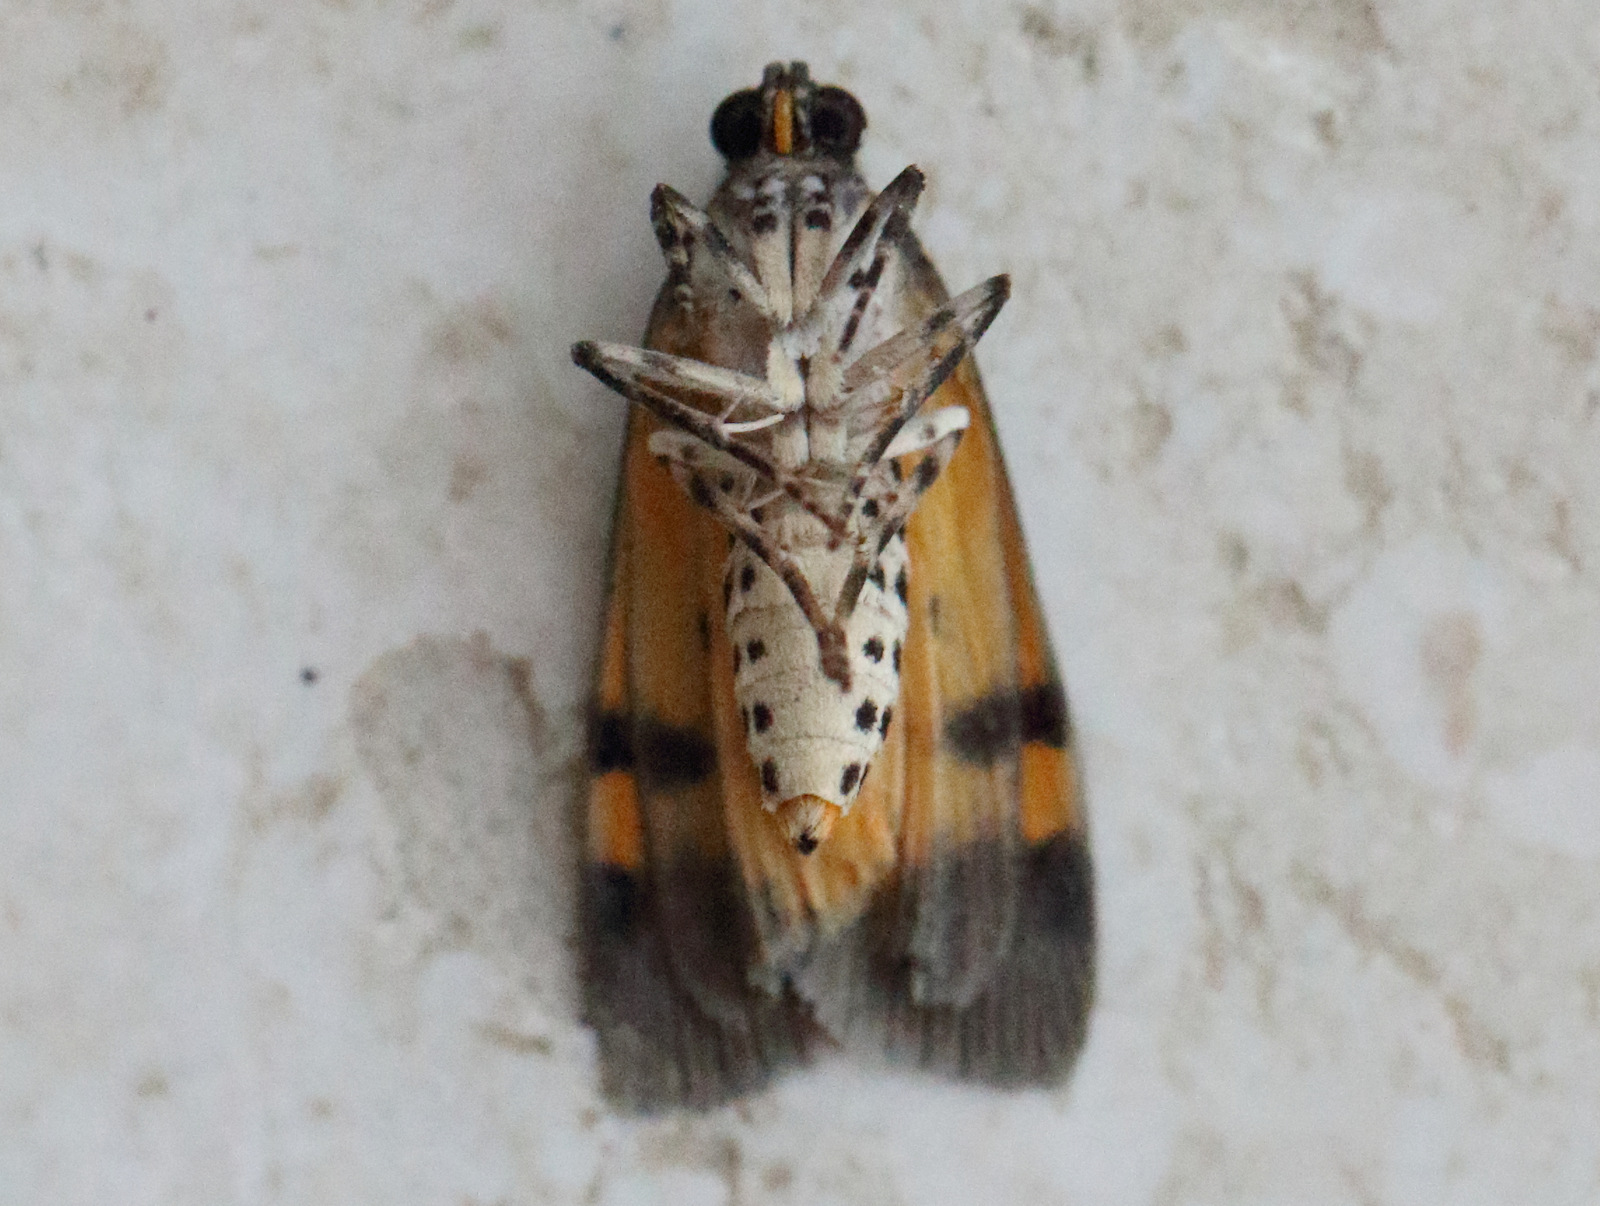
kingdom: Animalia
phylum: Arthropoda
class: Insecta
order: Lepidoptera
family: Erebidae
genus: Digama
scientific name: Digama Sommeria marmorea
